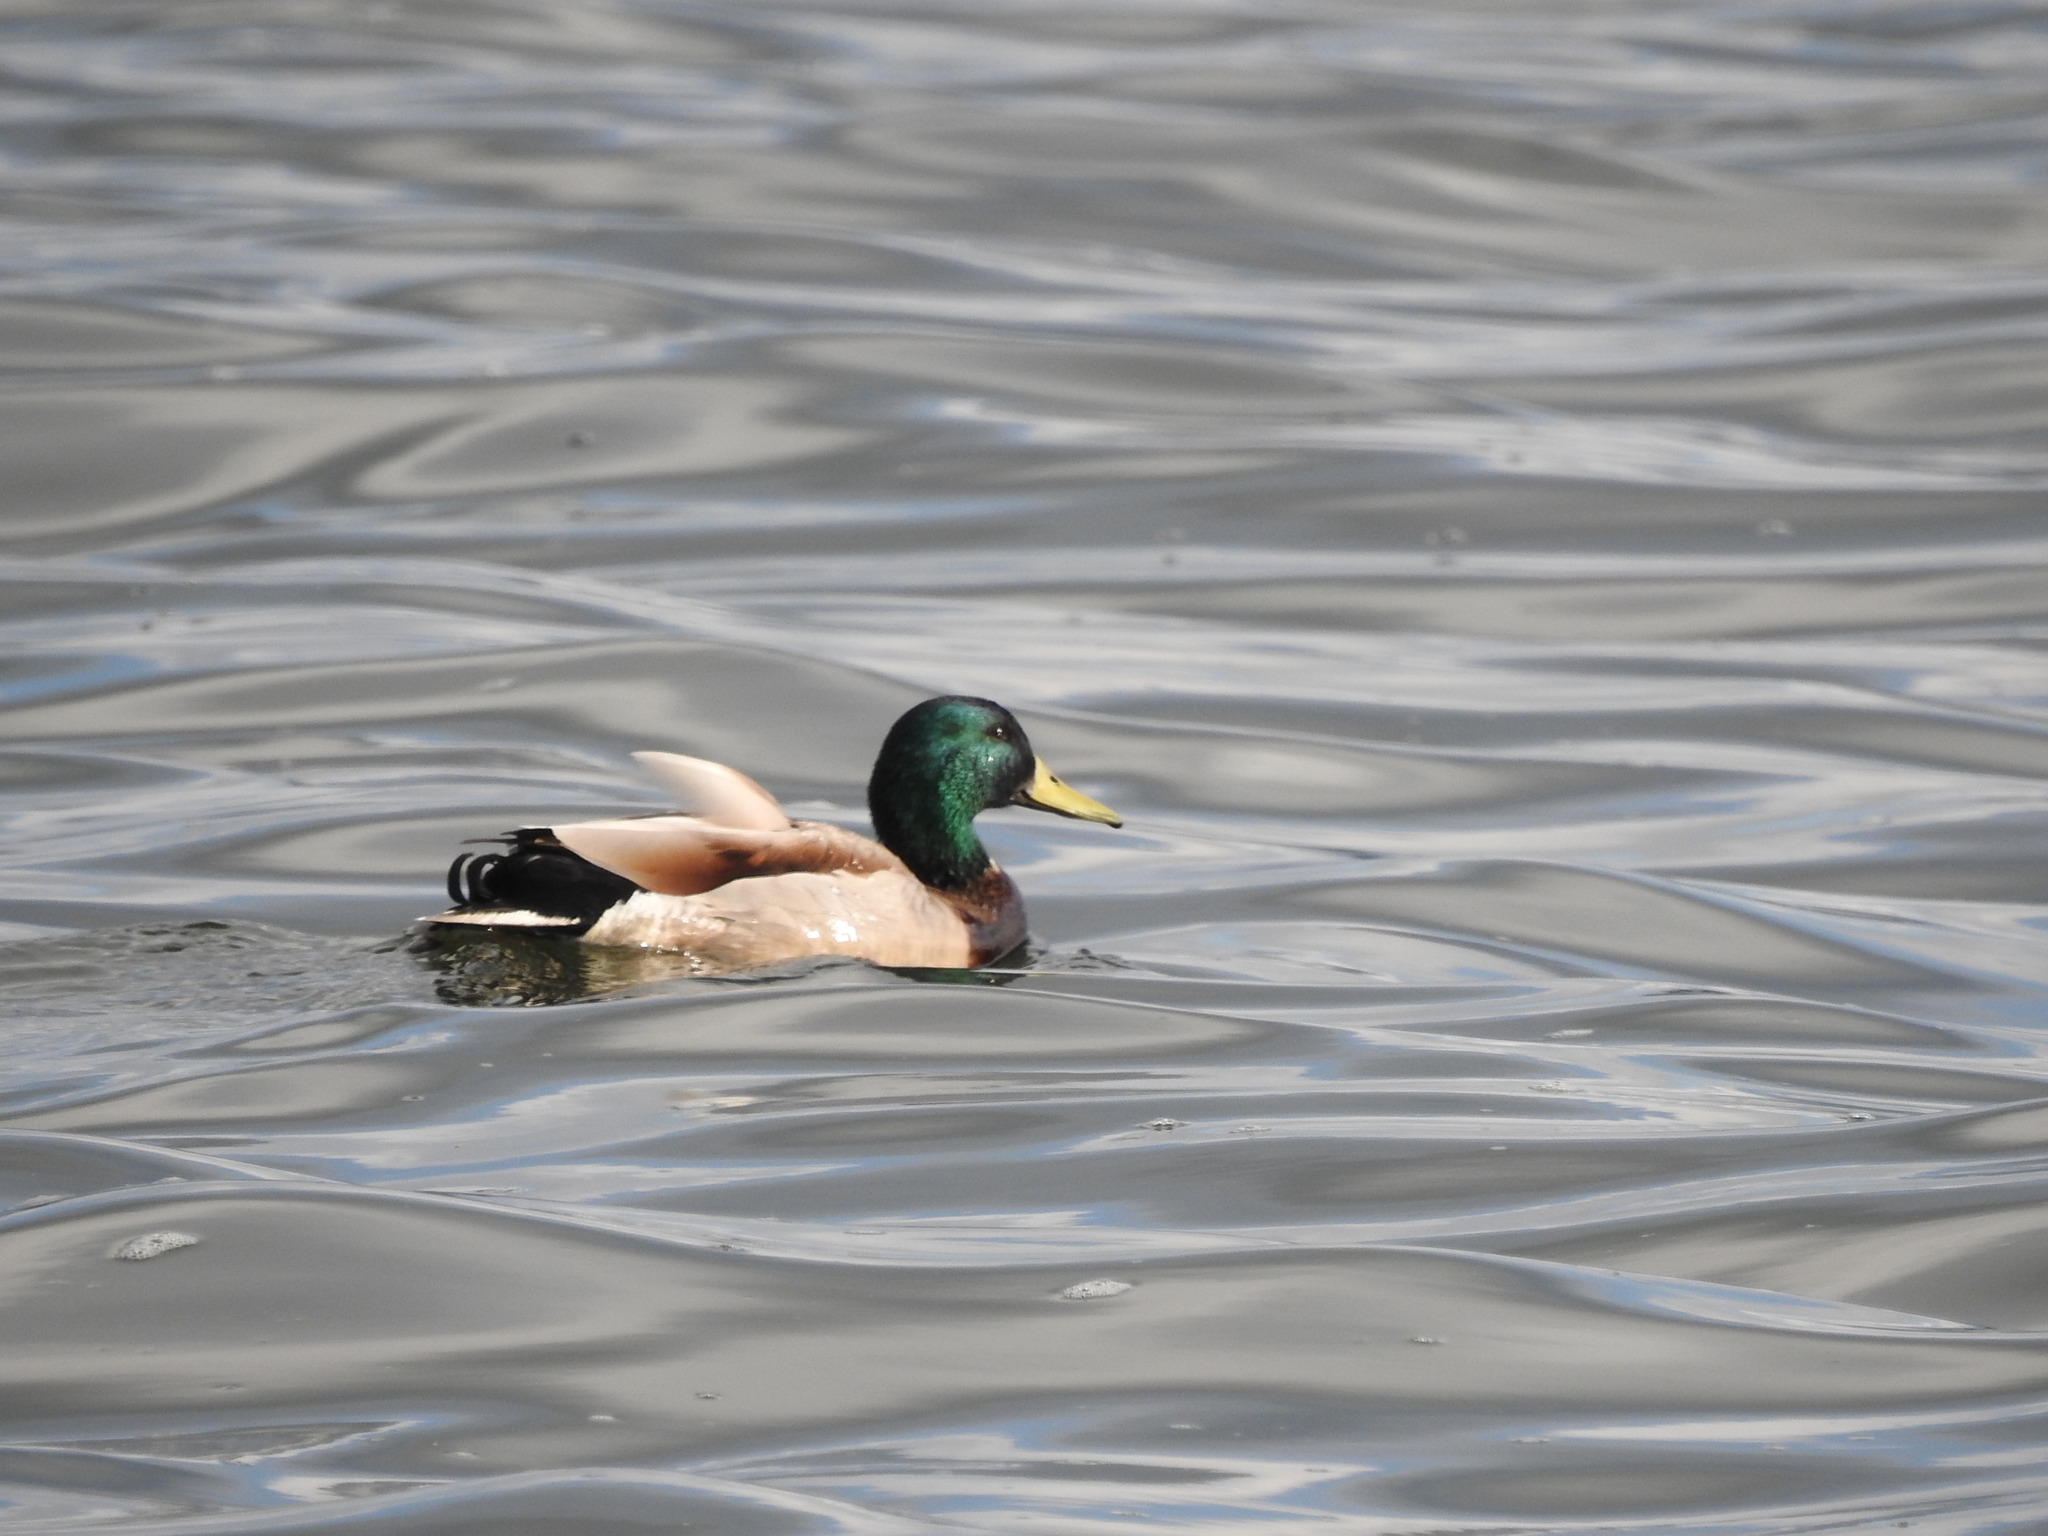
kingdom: Animalia
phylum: Chordata
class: Aves
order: Anseriformes
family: Anatidae
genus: Anas
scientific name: Anas platyrhynchos
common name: Mallard
